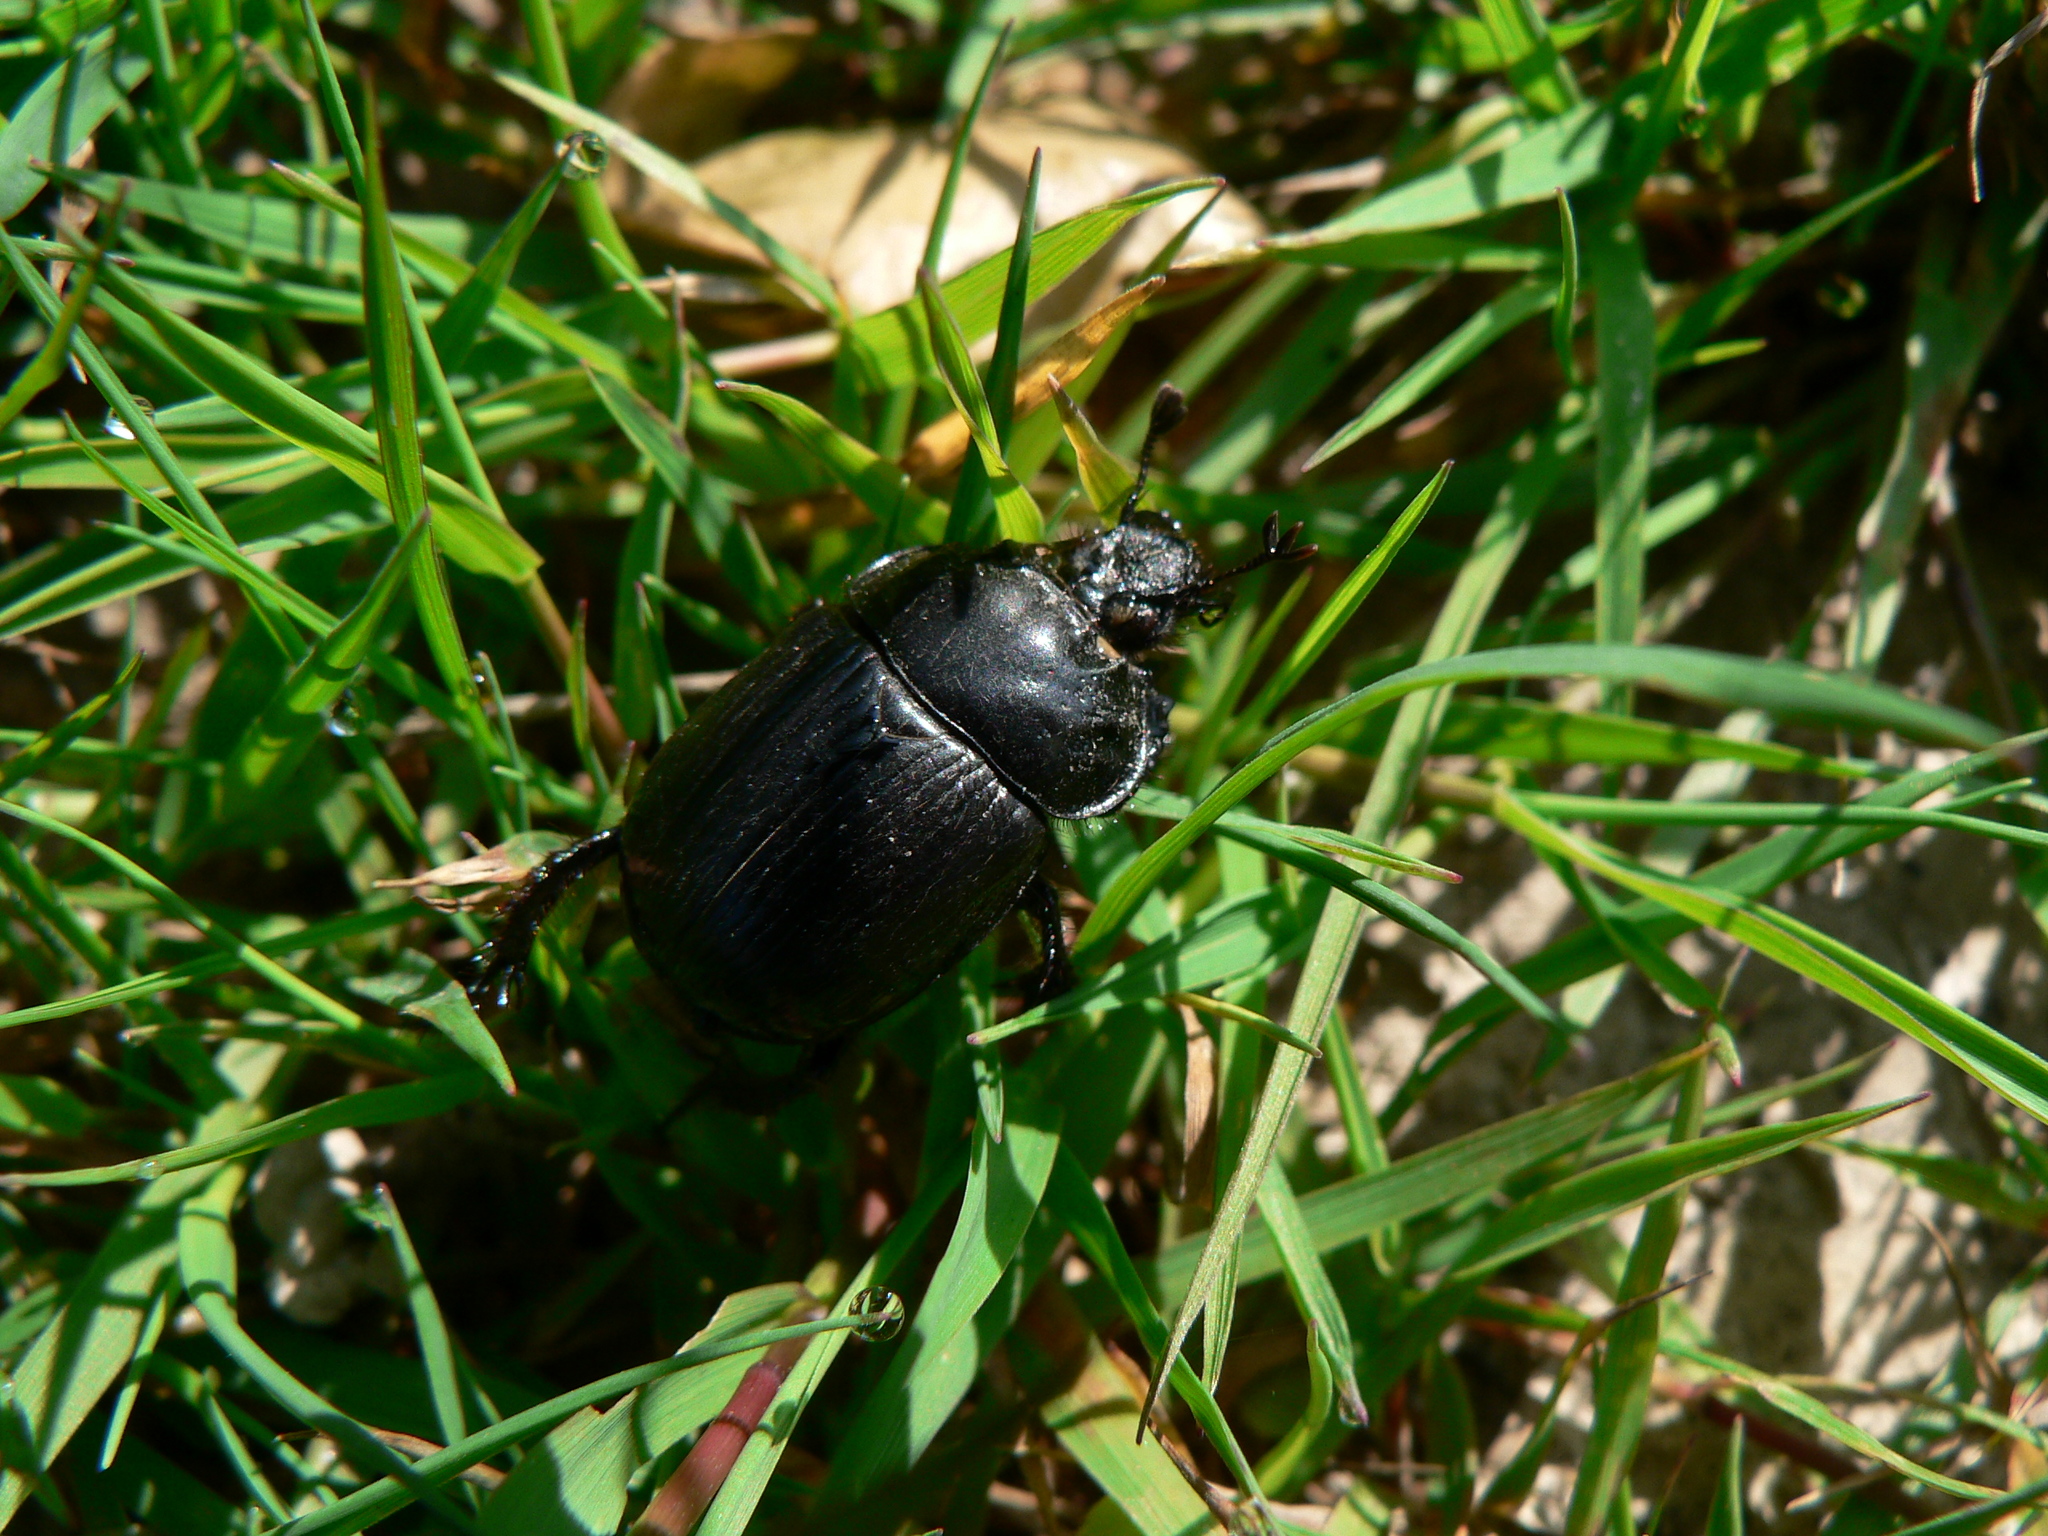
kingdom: Animalia
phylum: Arthropoda
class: Insecta
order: Coleoptera
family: Geotrupidae
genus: Typhaeus
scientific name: Typhaeus typhoeus
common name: Minotaur beetle
